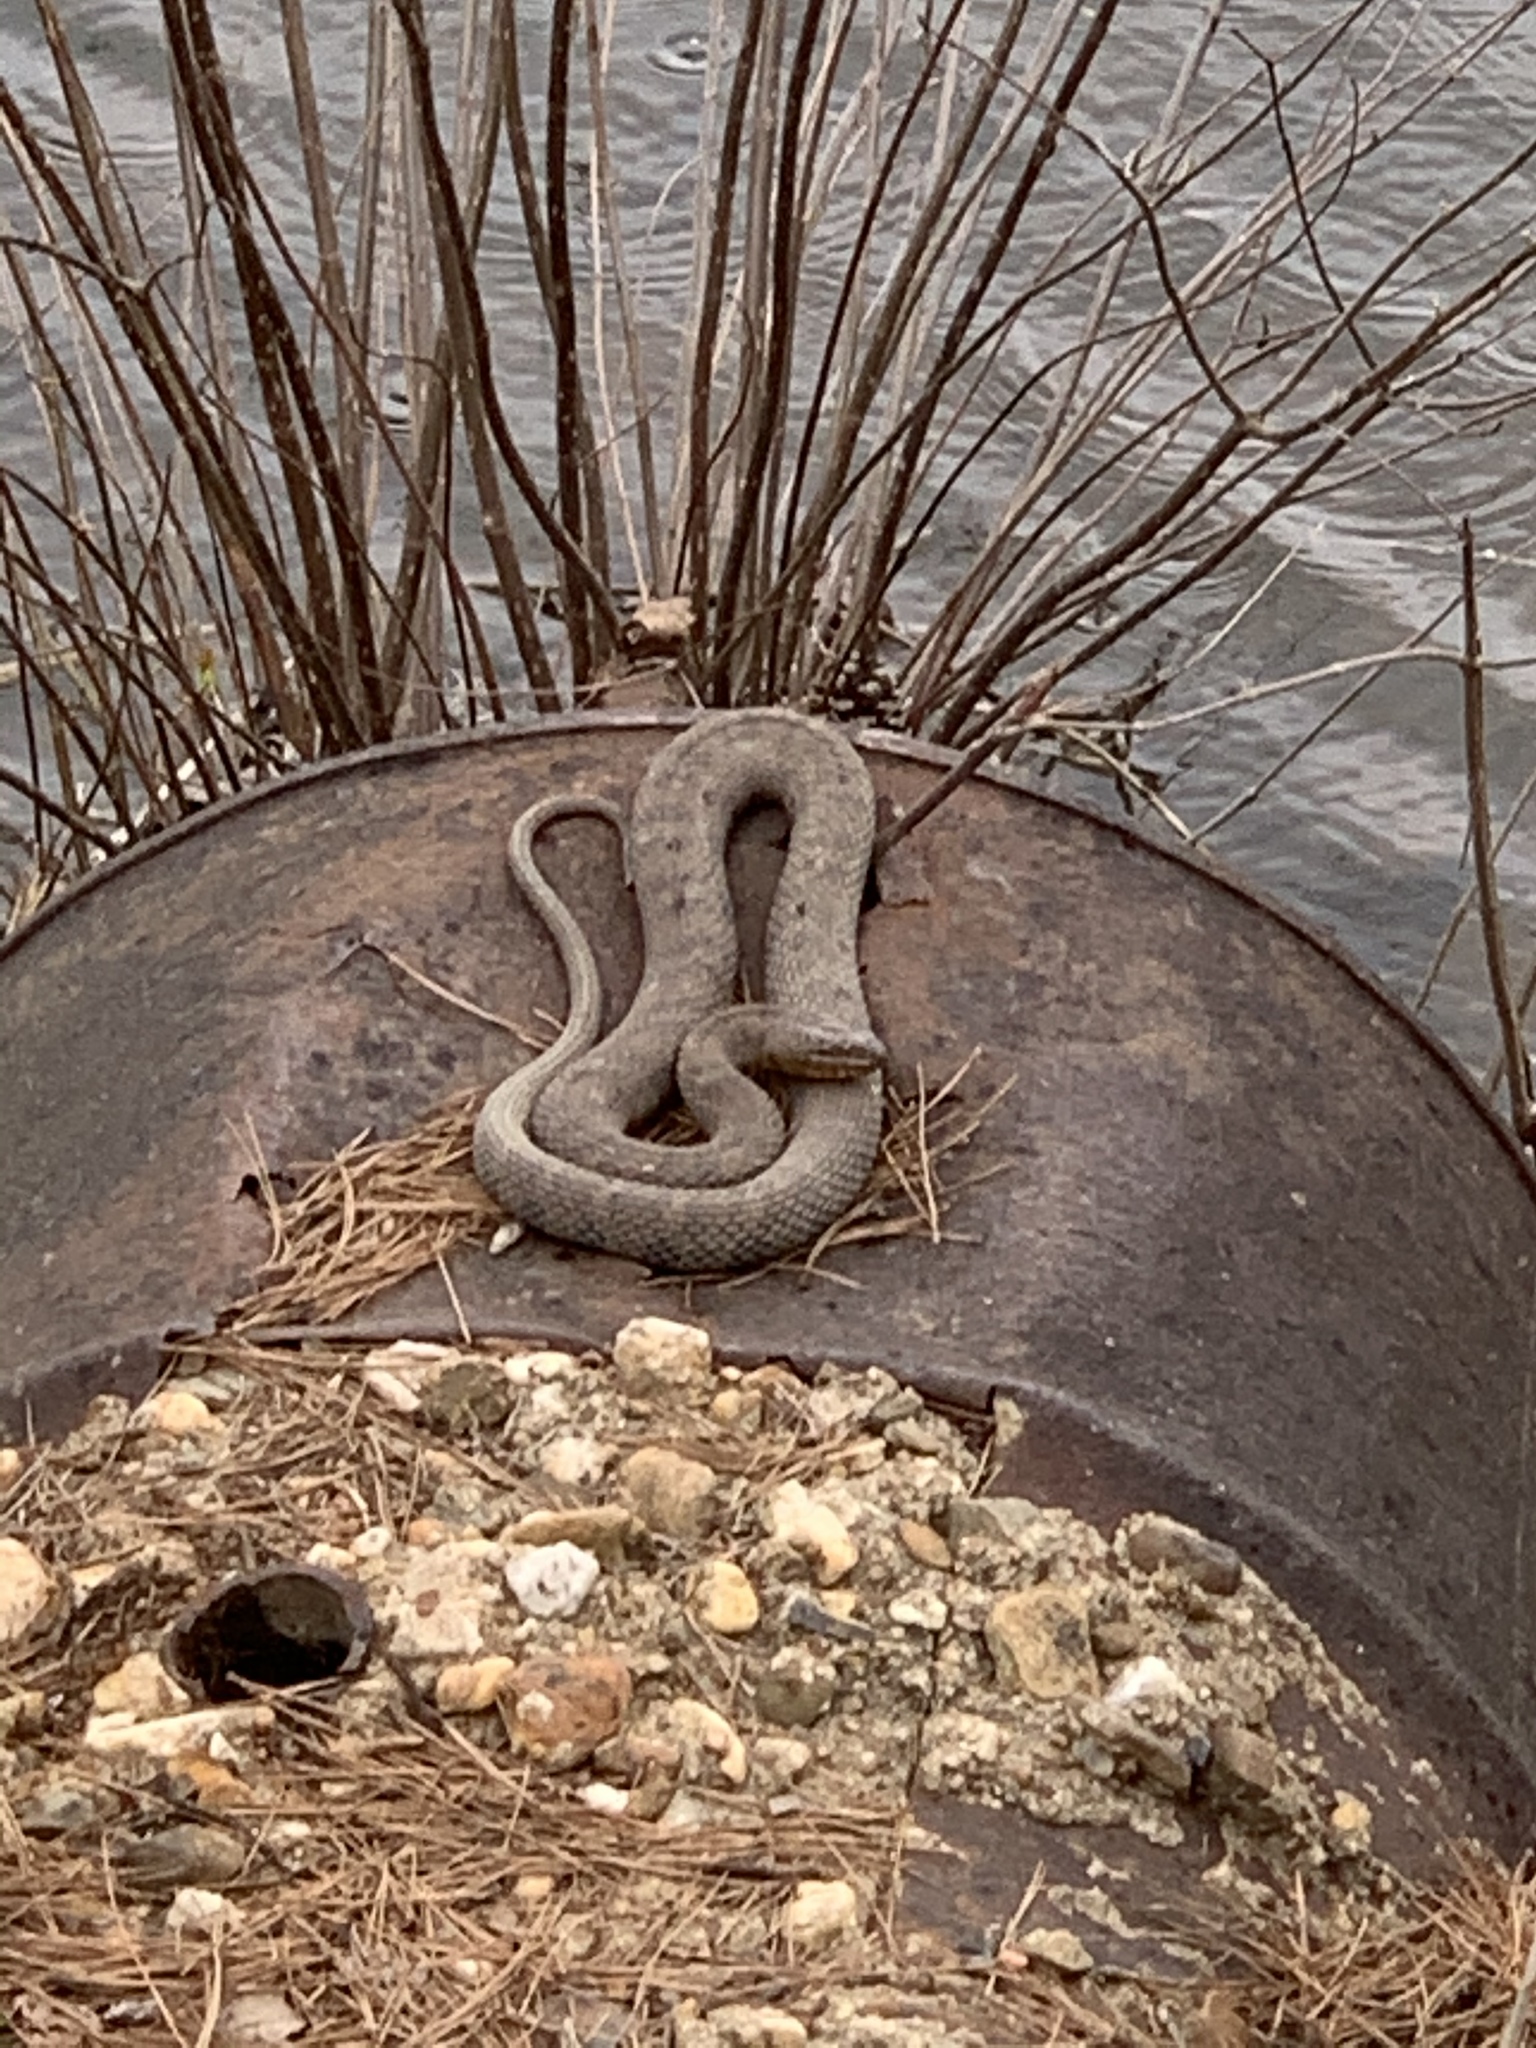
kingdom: Animalia
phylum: Chordata
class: Squamata
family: Colubridae
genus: Nerodia
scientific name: Nerodia sipedon
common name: Northern water snake
